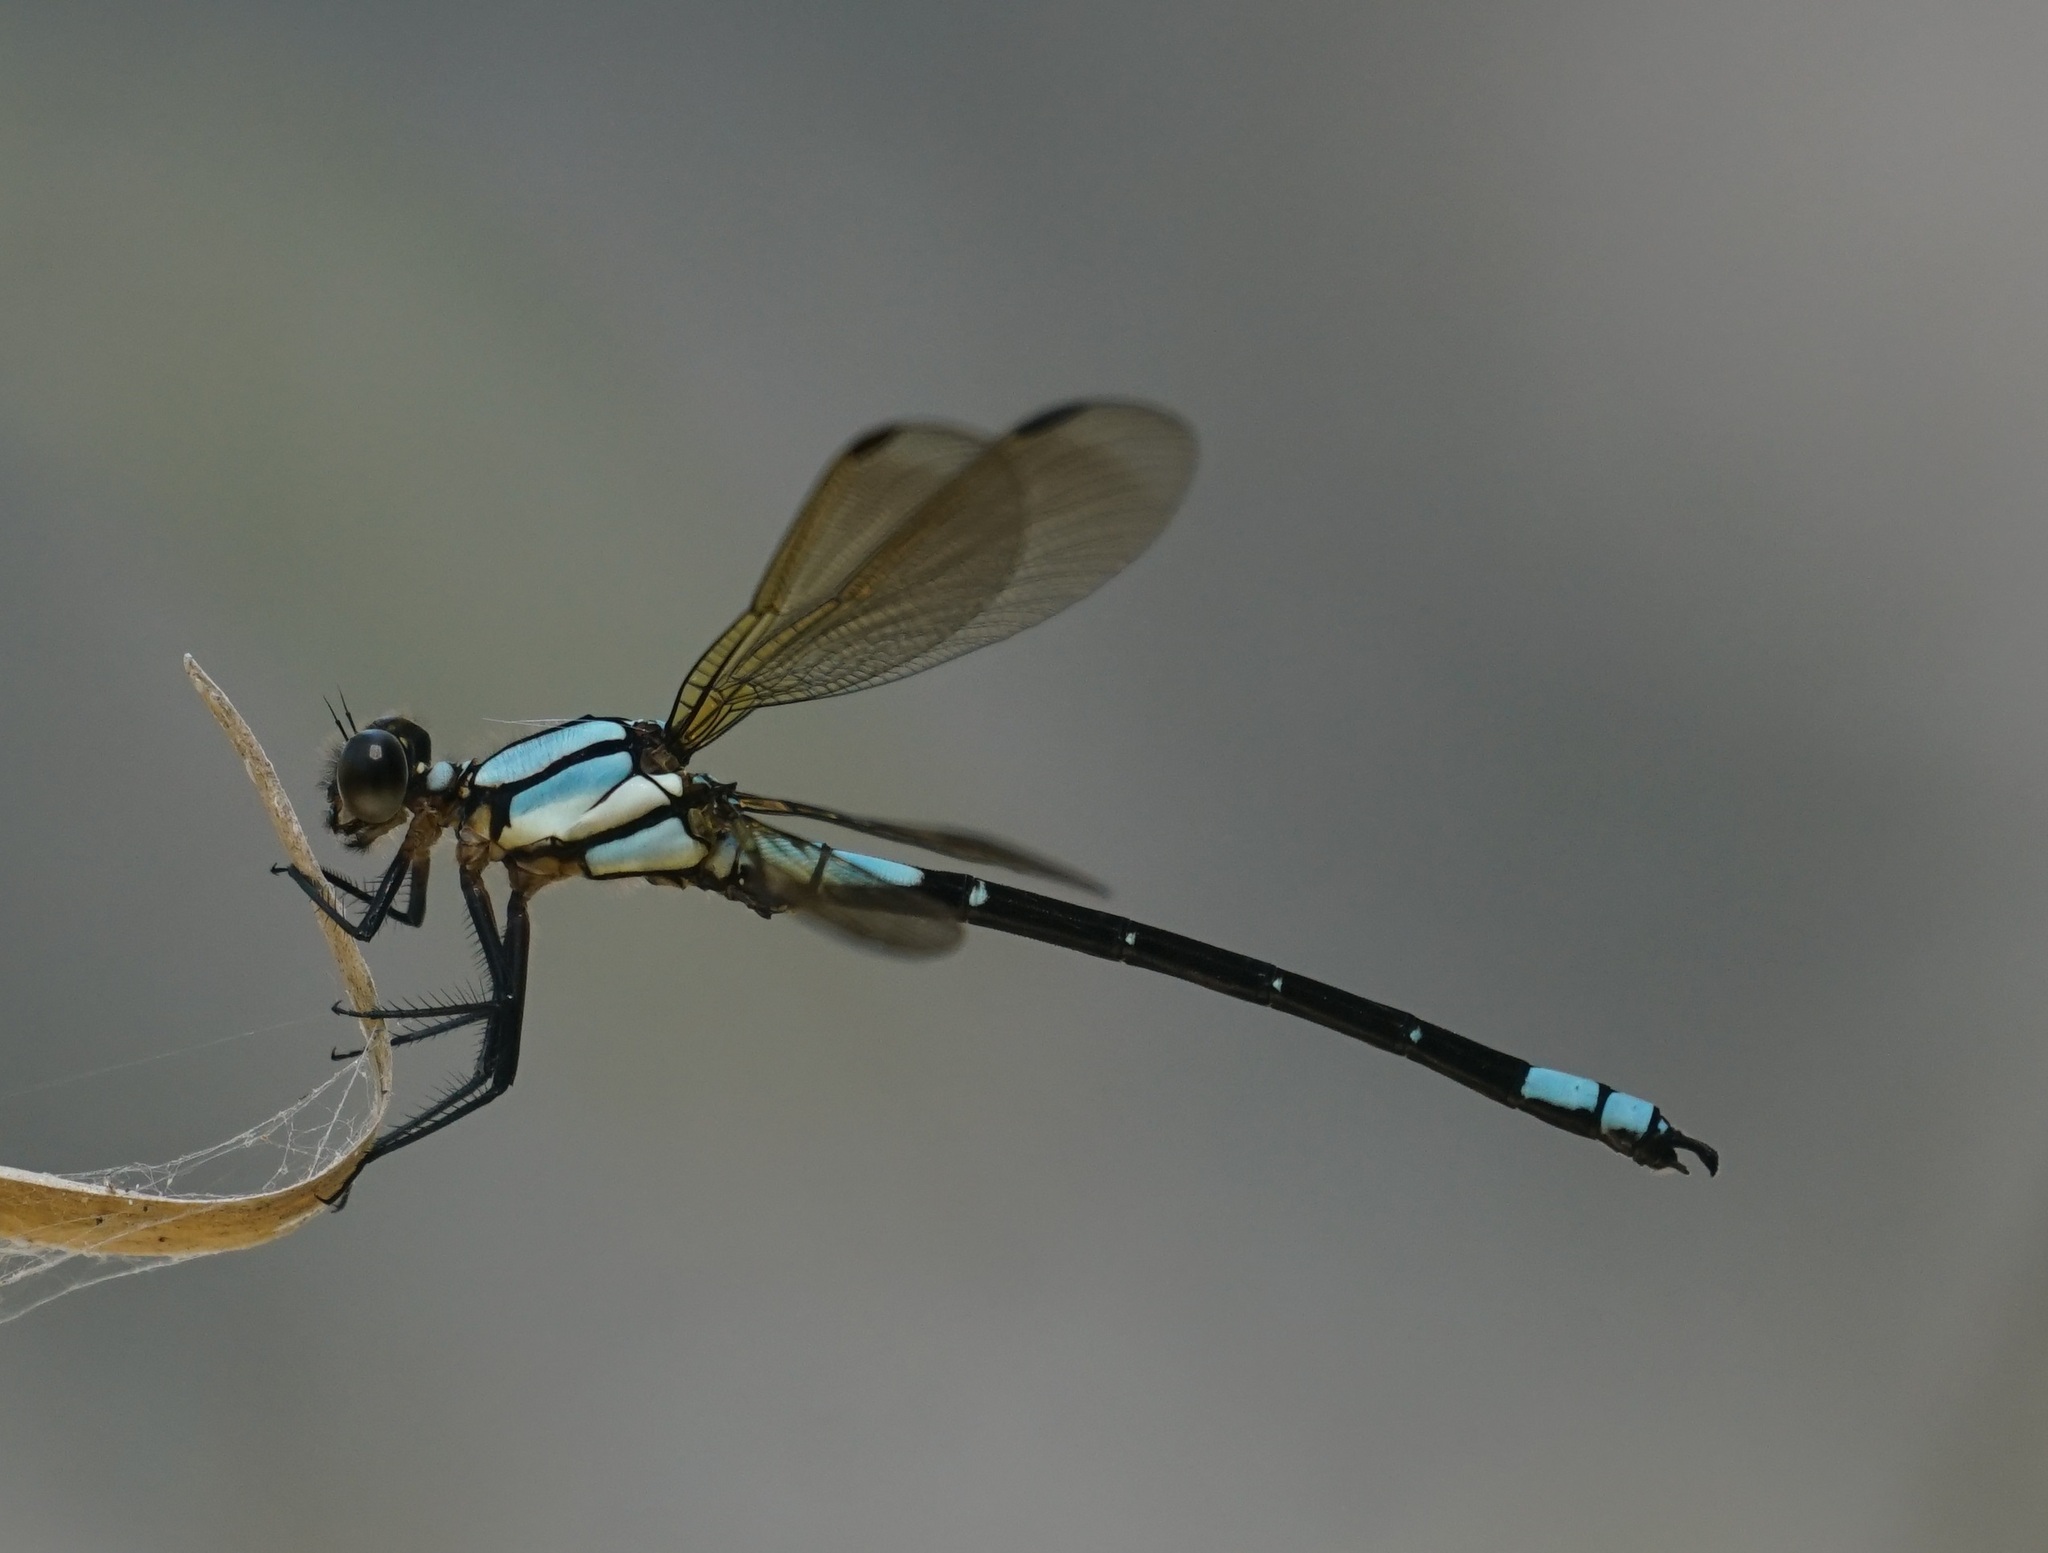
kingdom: Animalia
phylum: Arthropoda
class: Insecta
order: Odonata
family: Lestoideidae
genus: Diphlebia
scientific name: Diphlebia euphoeoides
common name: Tropical rockmaster
